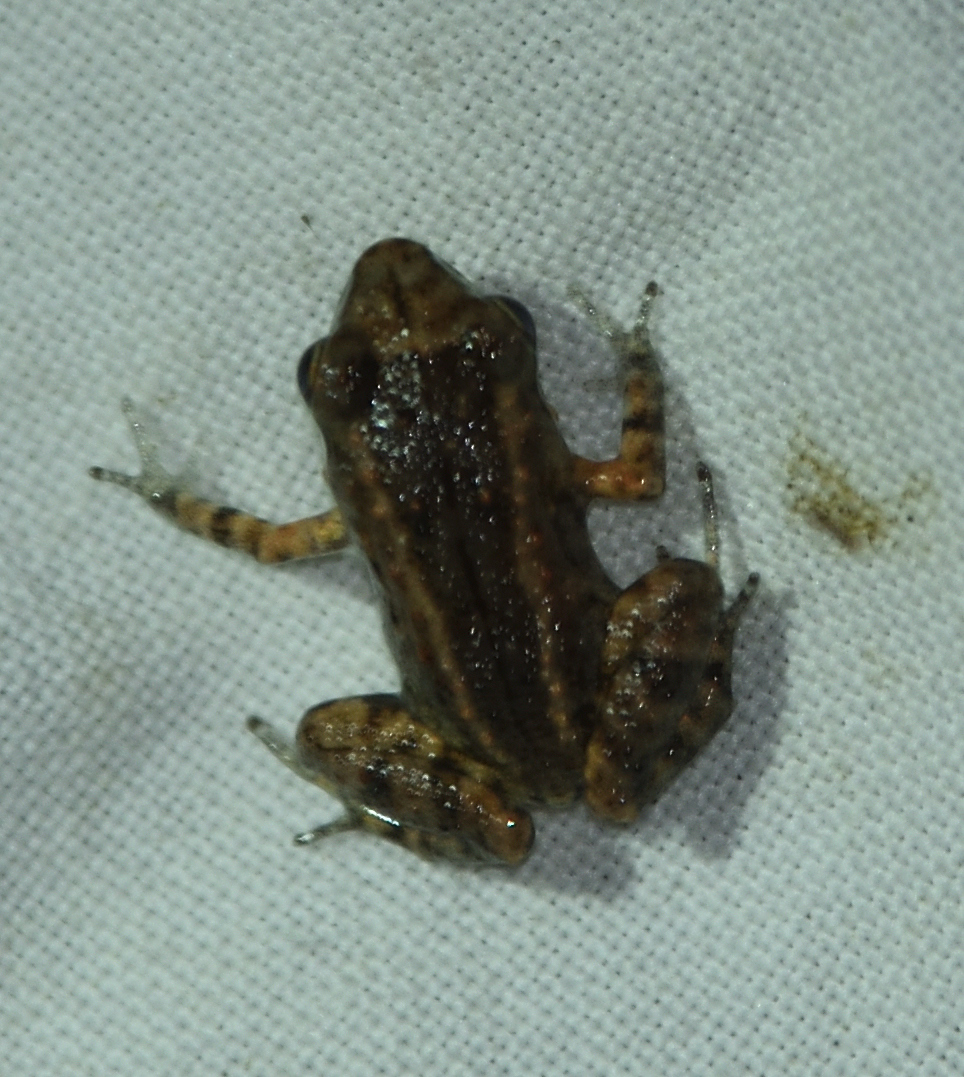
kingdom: Animalia
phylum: Chordata
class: Amphibia
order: Anura
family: Eleutherodactylidae
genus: Eleutherodactylus
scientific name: Eleutherodactylus planirostris
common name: Greenhouse frog
